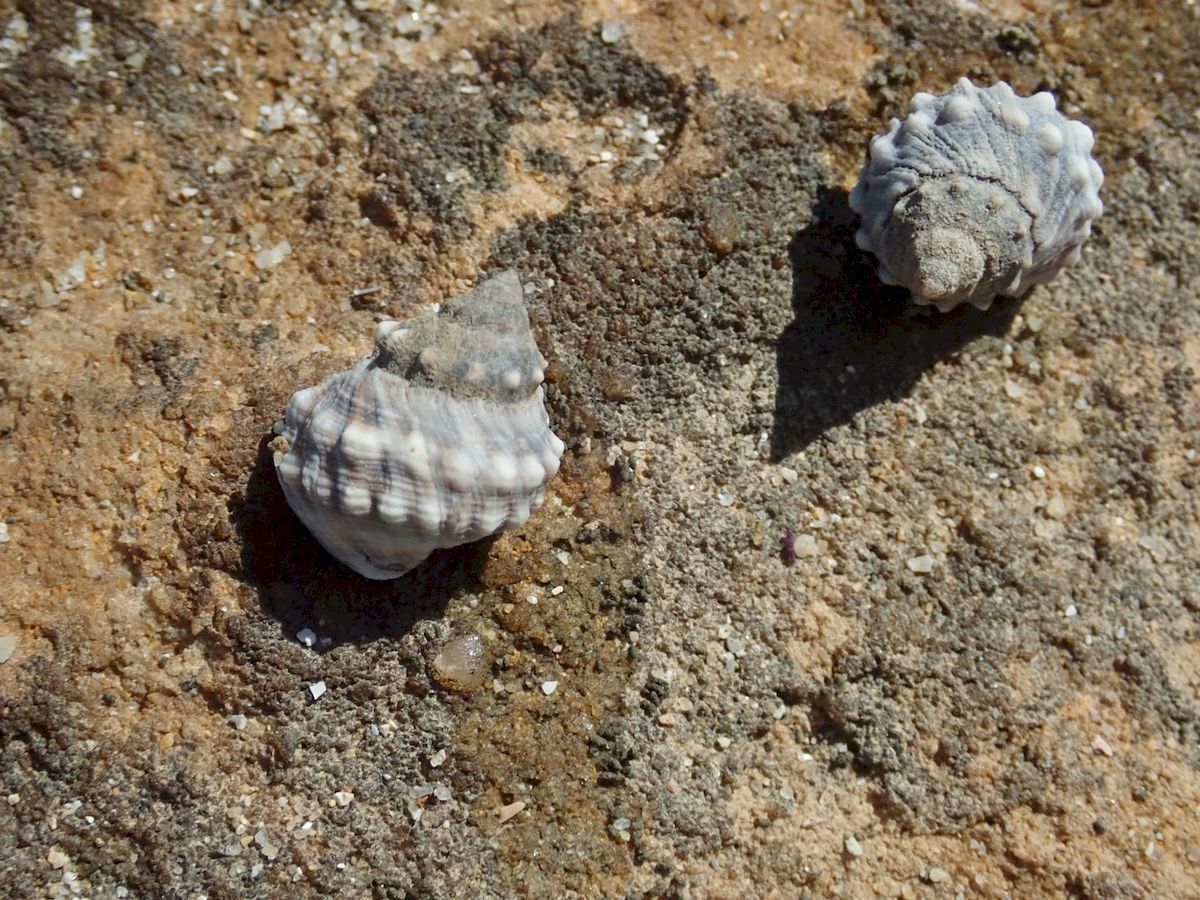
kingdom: Animalia
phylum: Mollusca
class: Gastropoda
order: Littorinimorpha
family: Littorinidae
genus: Nodilittorina
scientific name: Nodilittorina pyramidalis
